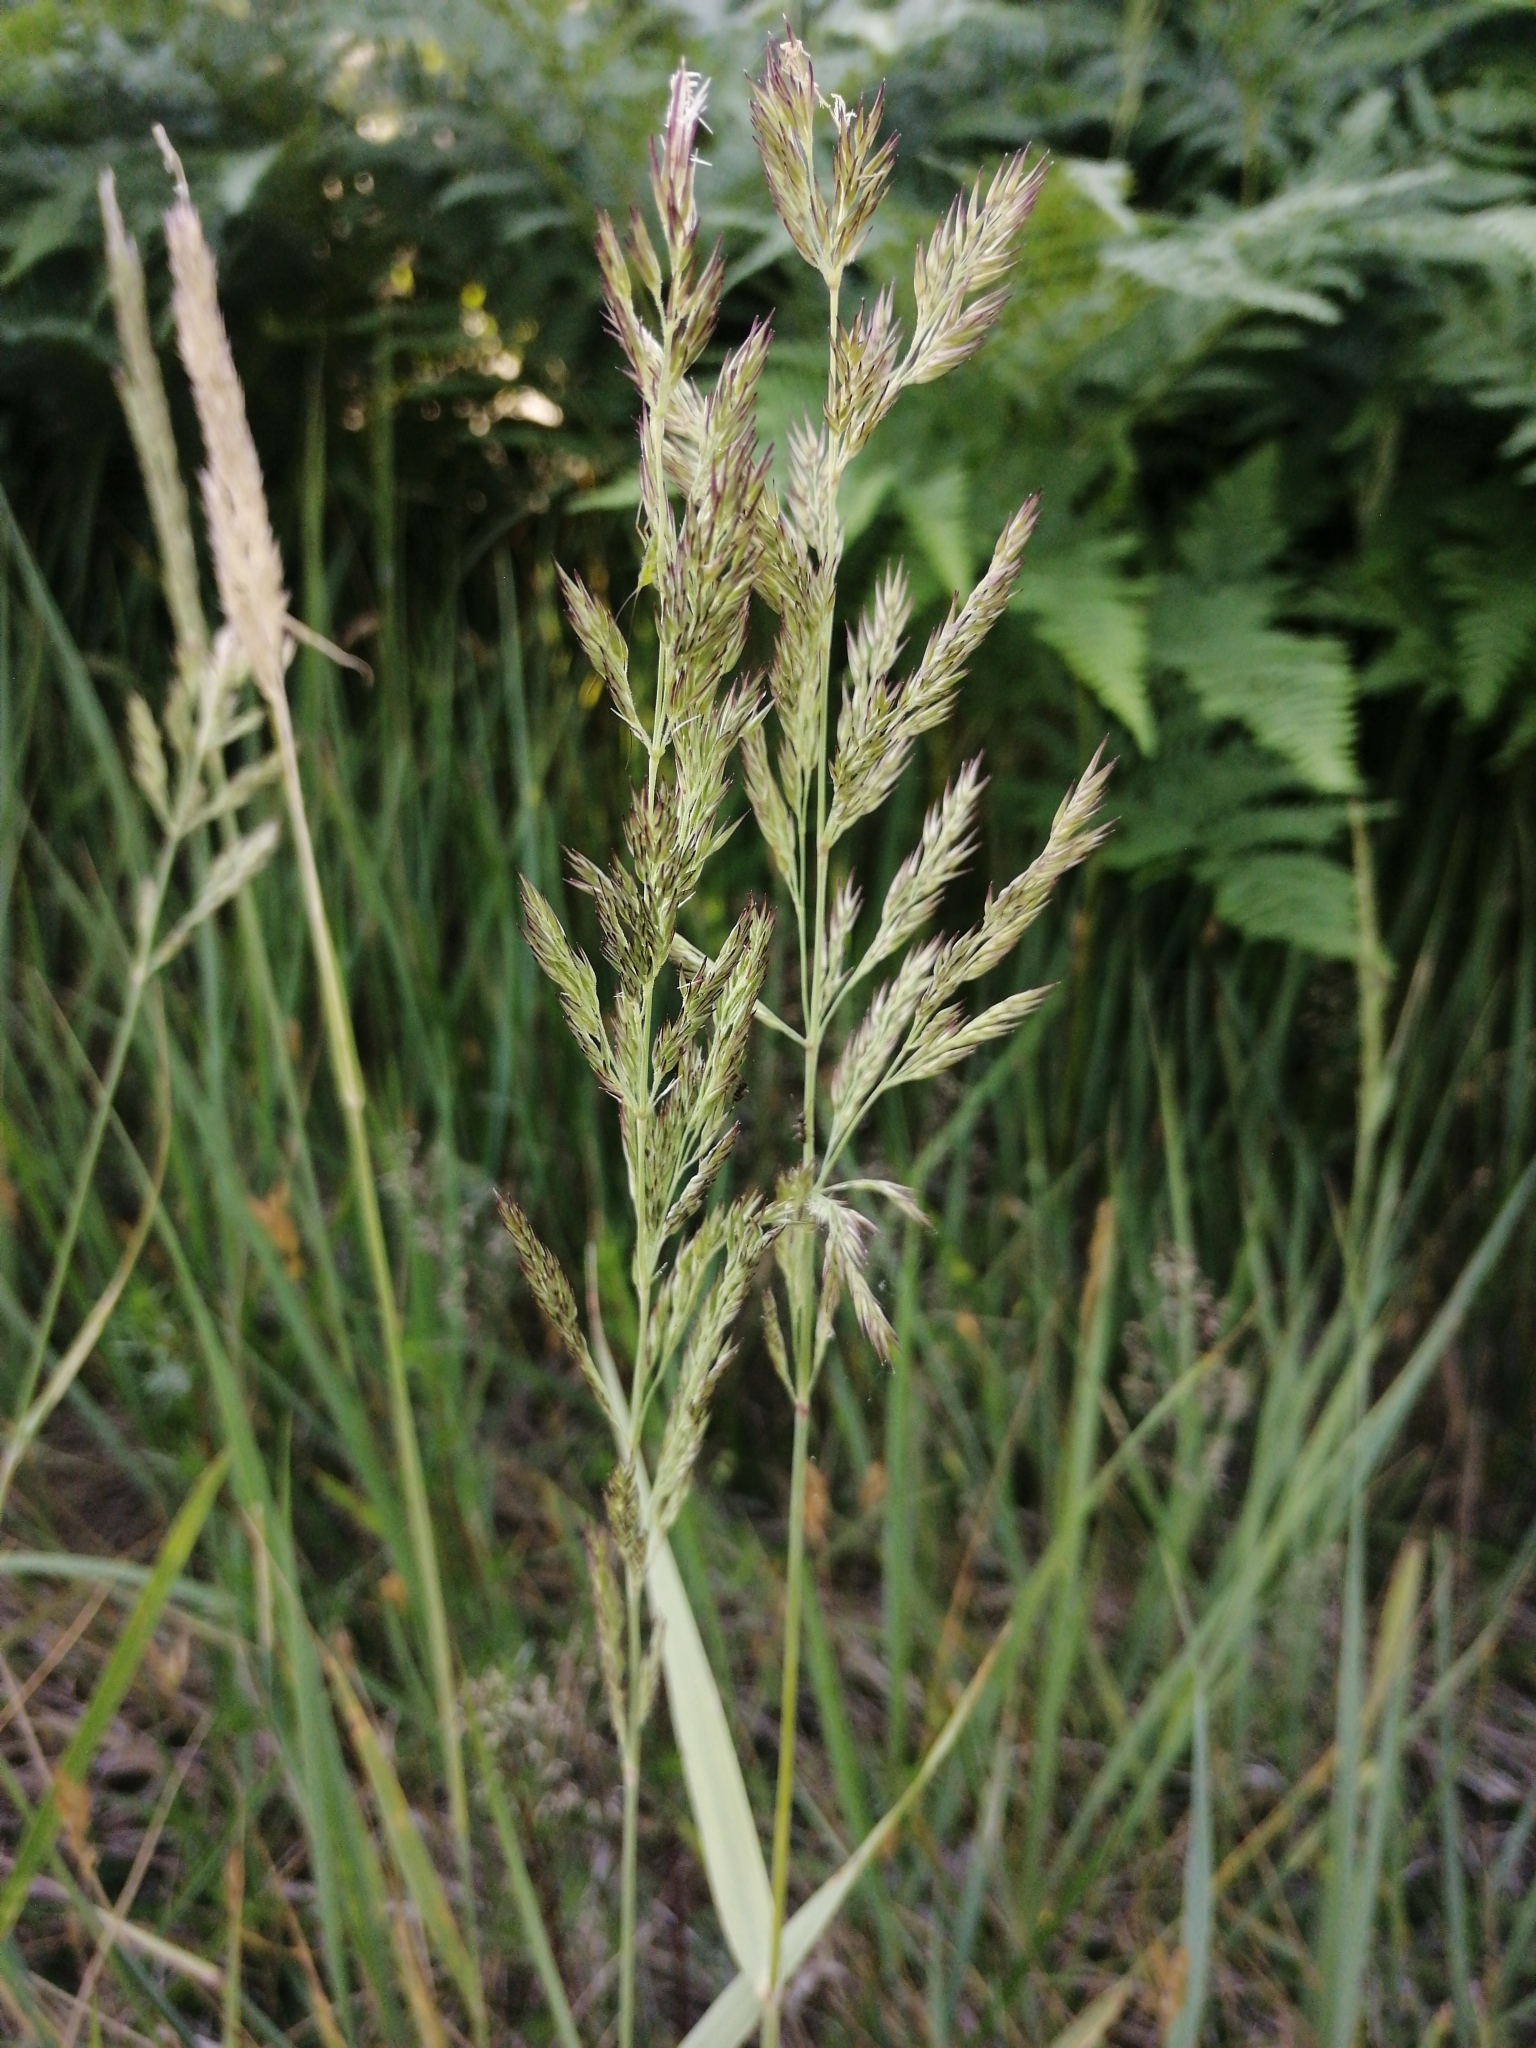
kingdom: Plantae
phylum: Tracheophyta
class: Liliopsida
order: Poales
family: Poaceae
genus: Calamagrostis
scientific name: Calamagrostis epigejos
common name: Wood small-reed
